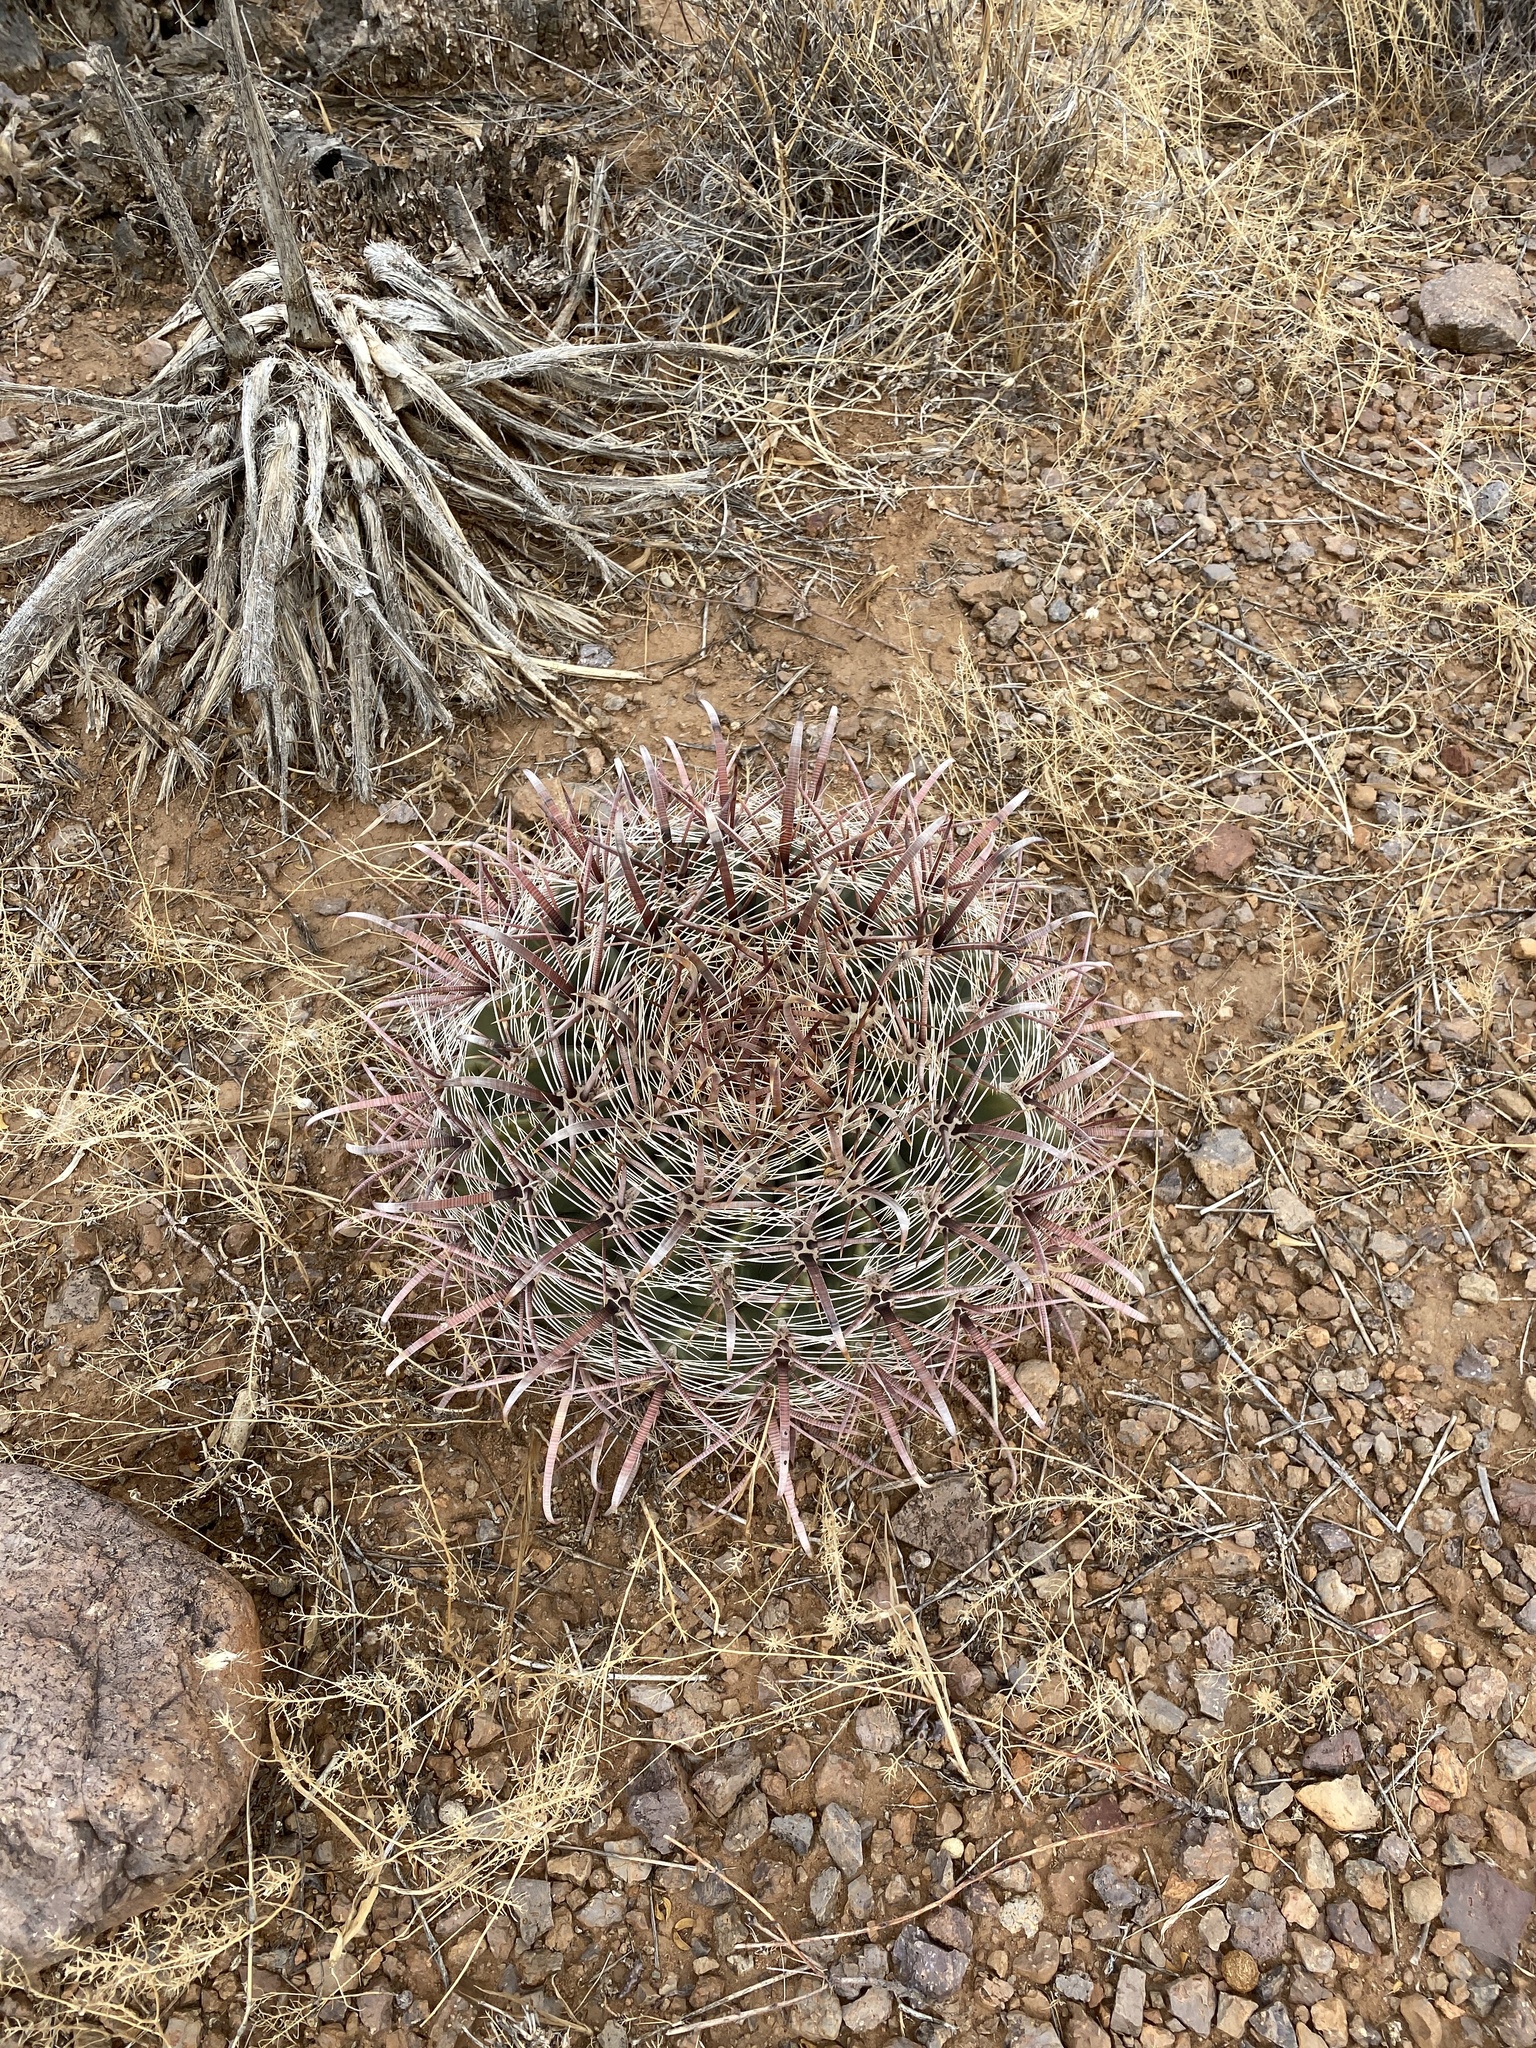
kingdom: Plantae
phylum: Tracheophyta
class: Magnoliopsida
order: Caryophyllales
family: Cactaceae
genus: Ferocactus
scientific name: Ferocactus wislizeni
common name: Candy barrel cactus
